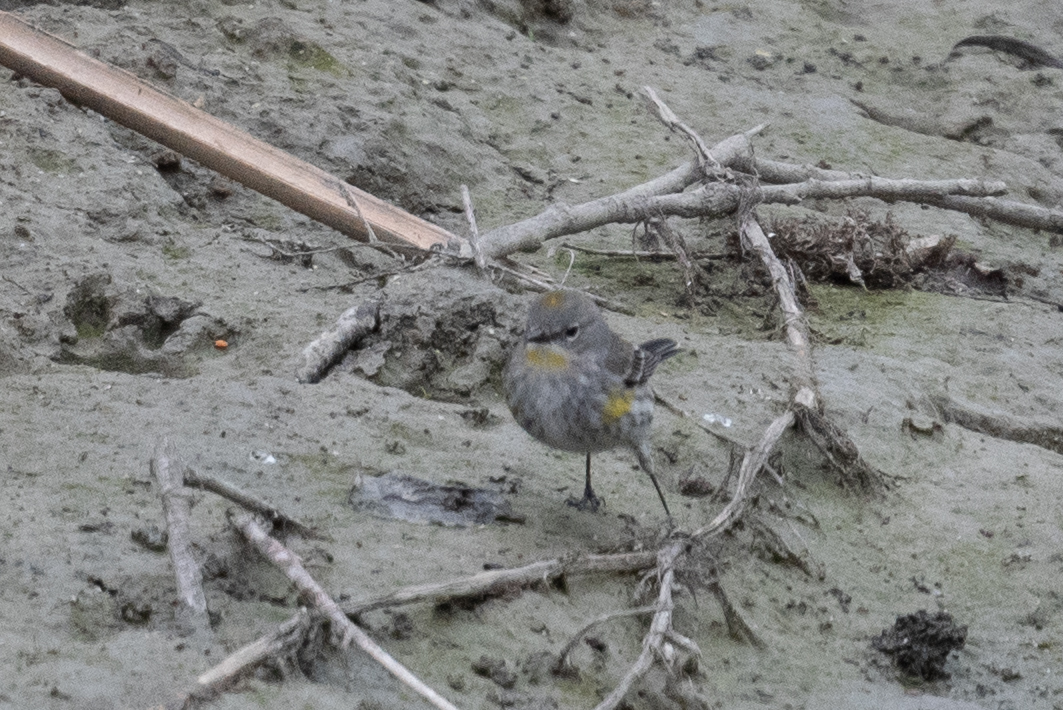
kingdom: Animalia
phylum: Chordata
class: Aves
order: Passeriformes
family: Parulidae
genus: Setophaga
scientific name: Setophaga coronata
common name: Myrtle warbler
